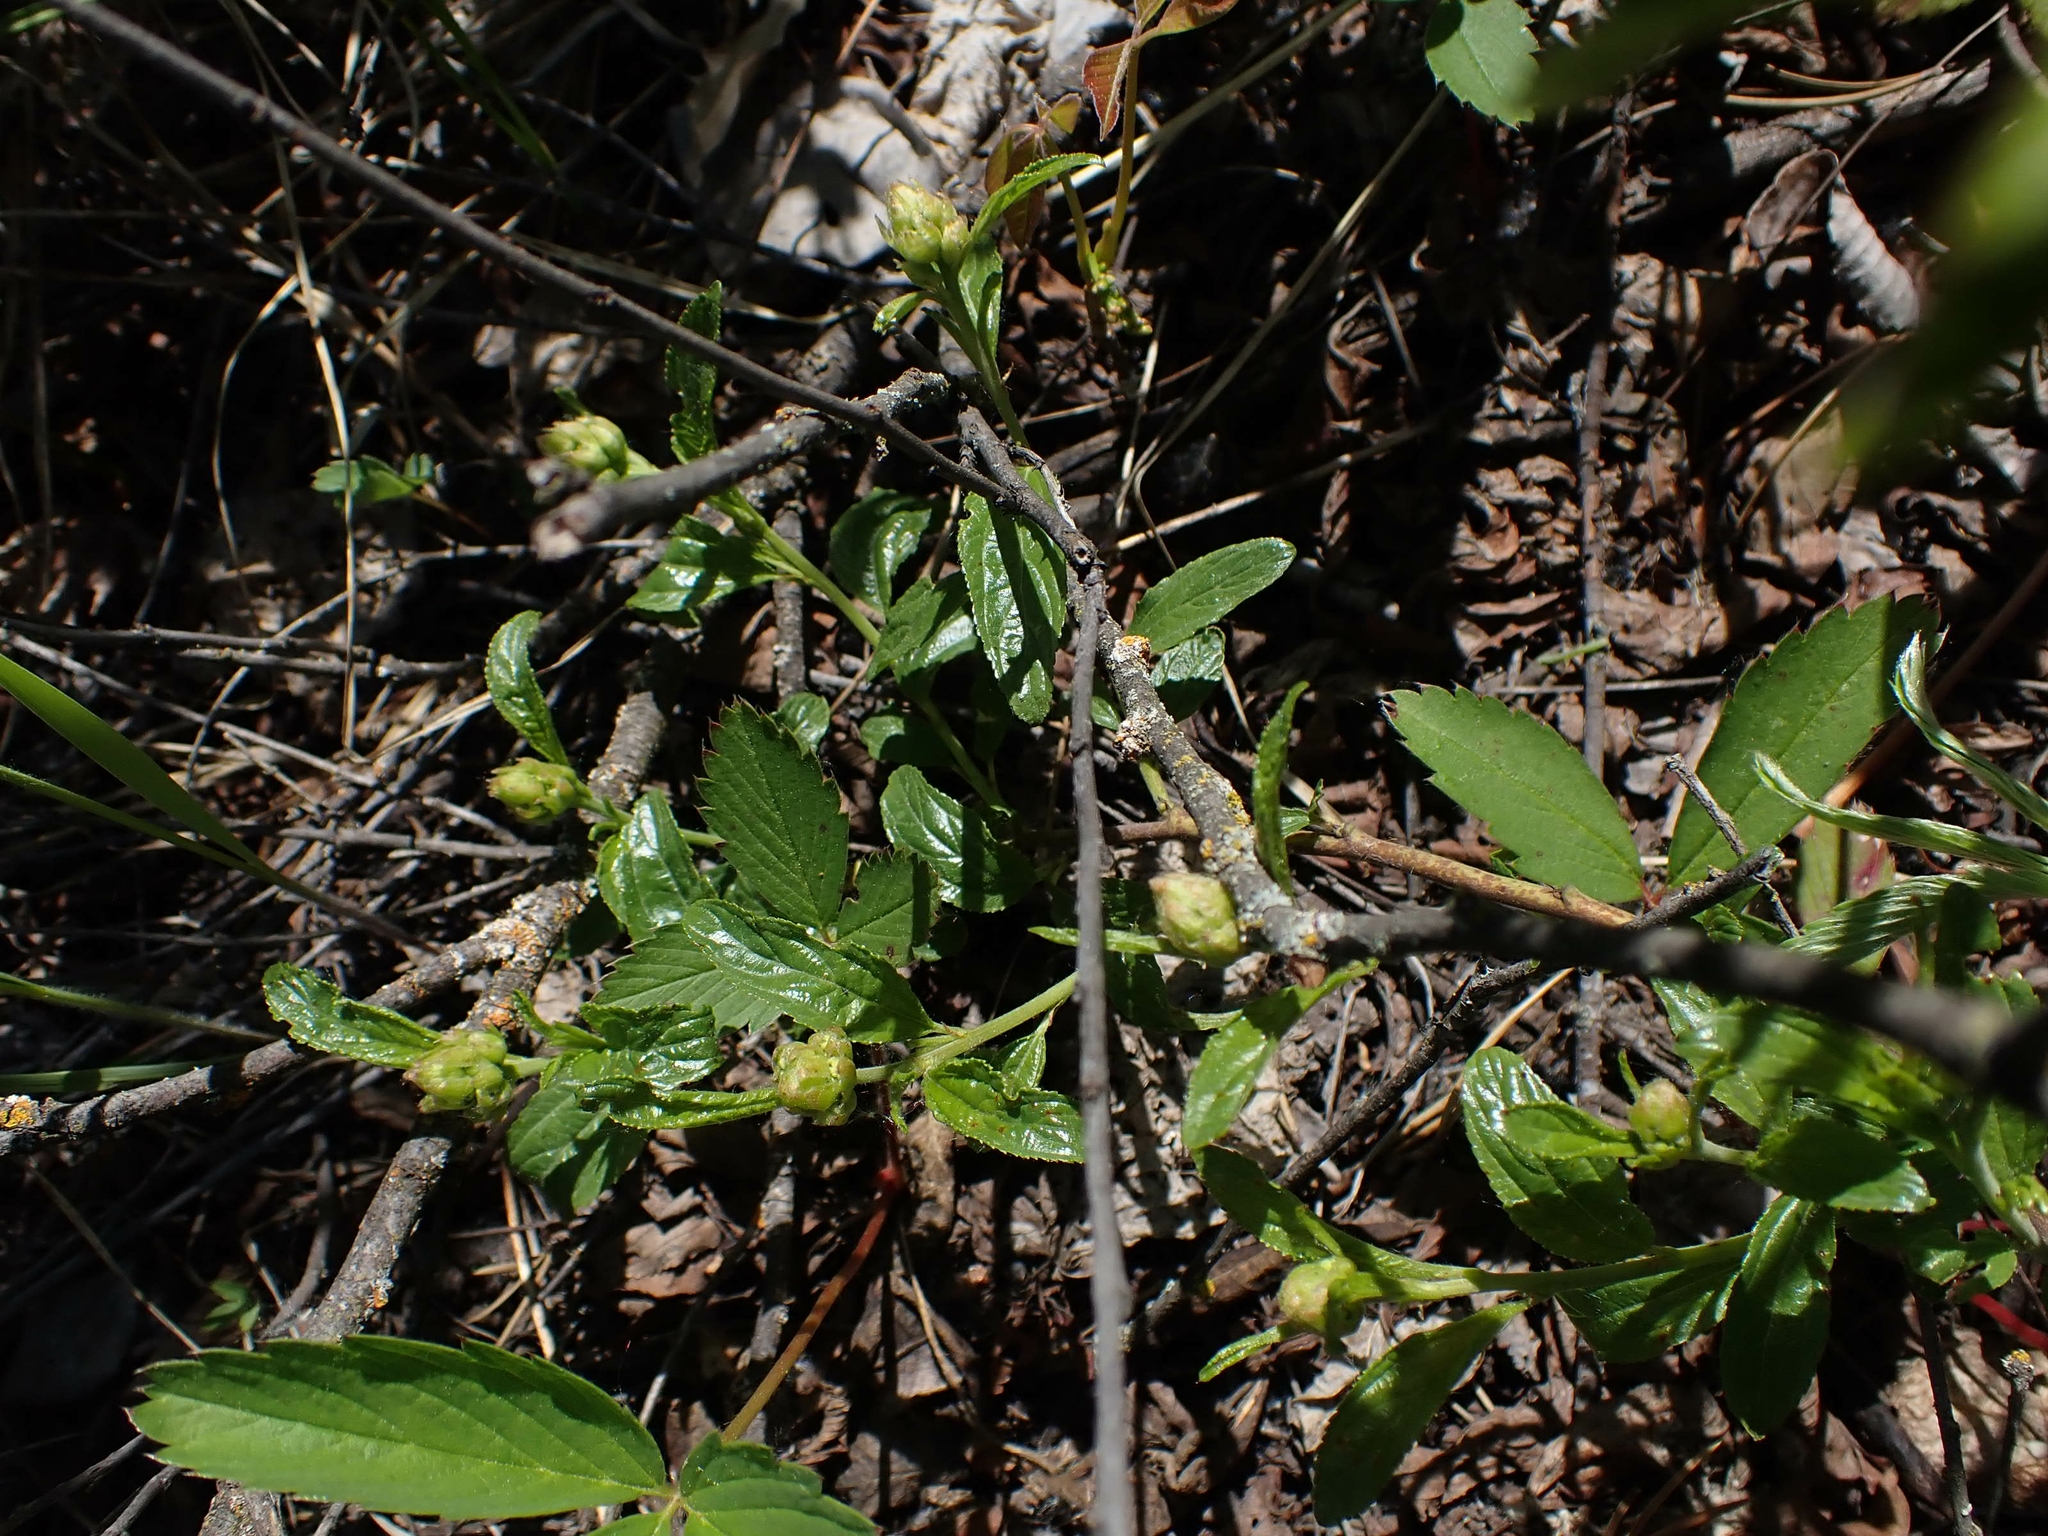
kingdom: Plantae
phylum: Tracheophyta
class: Magnoliopsida
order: Rosales
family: Rhamnaceae
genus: Ceanothus
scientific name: Ceanothus herbaceus
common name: Inland ceanothus
